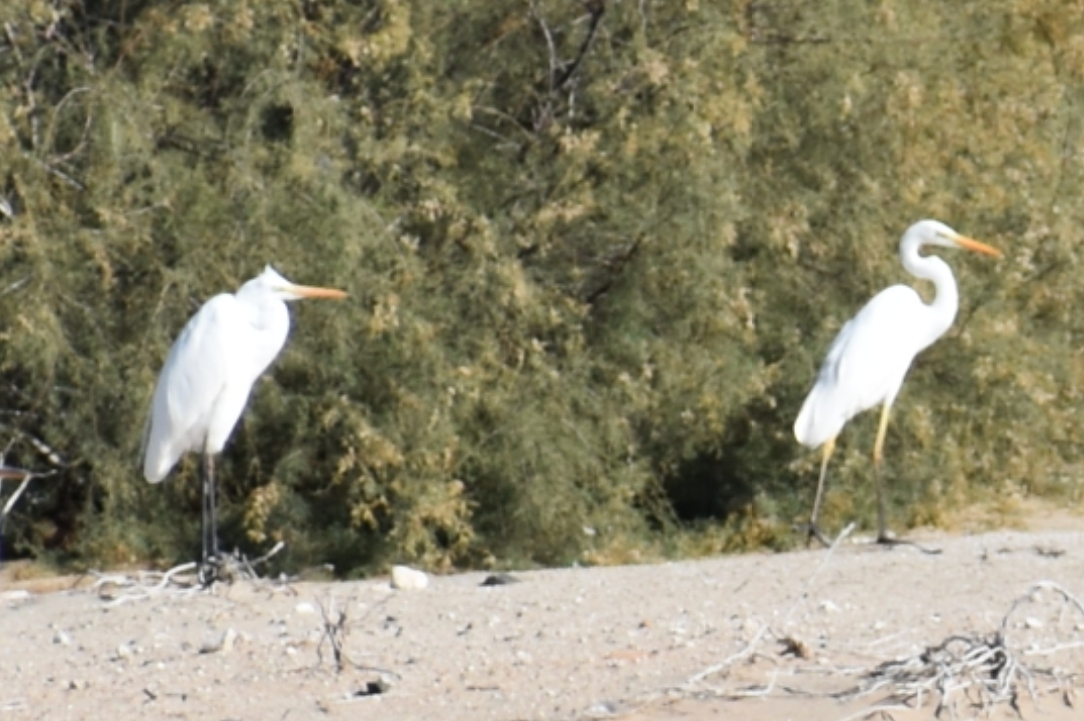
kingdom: Animalia
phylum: Chordata
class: Aves
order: Pelecaniformes
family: Ardeidae
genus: Ardea
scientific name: Ardea alba
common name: Great egret
